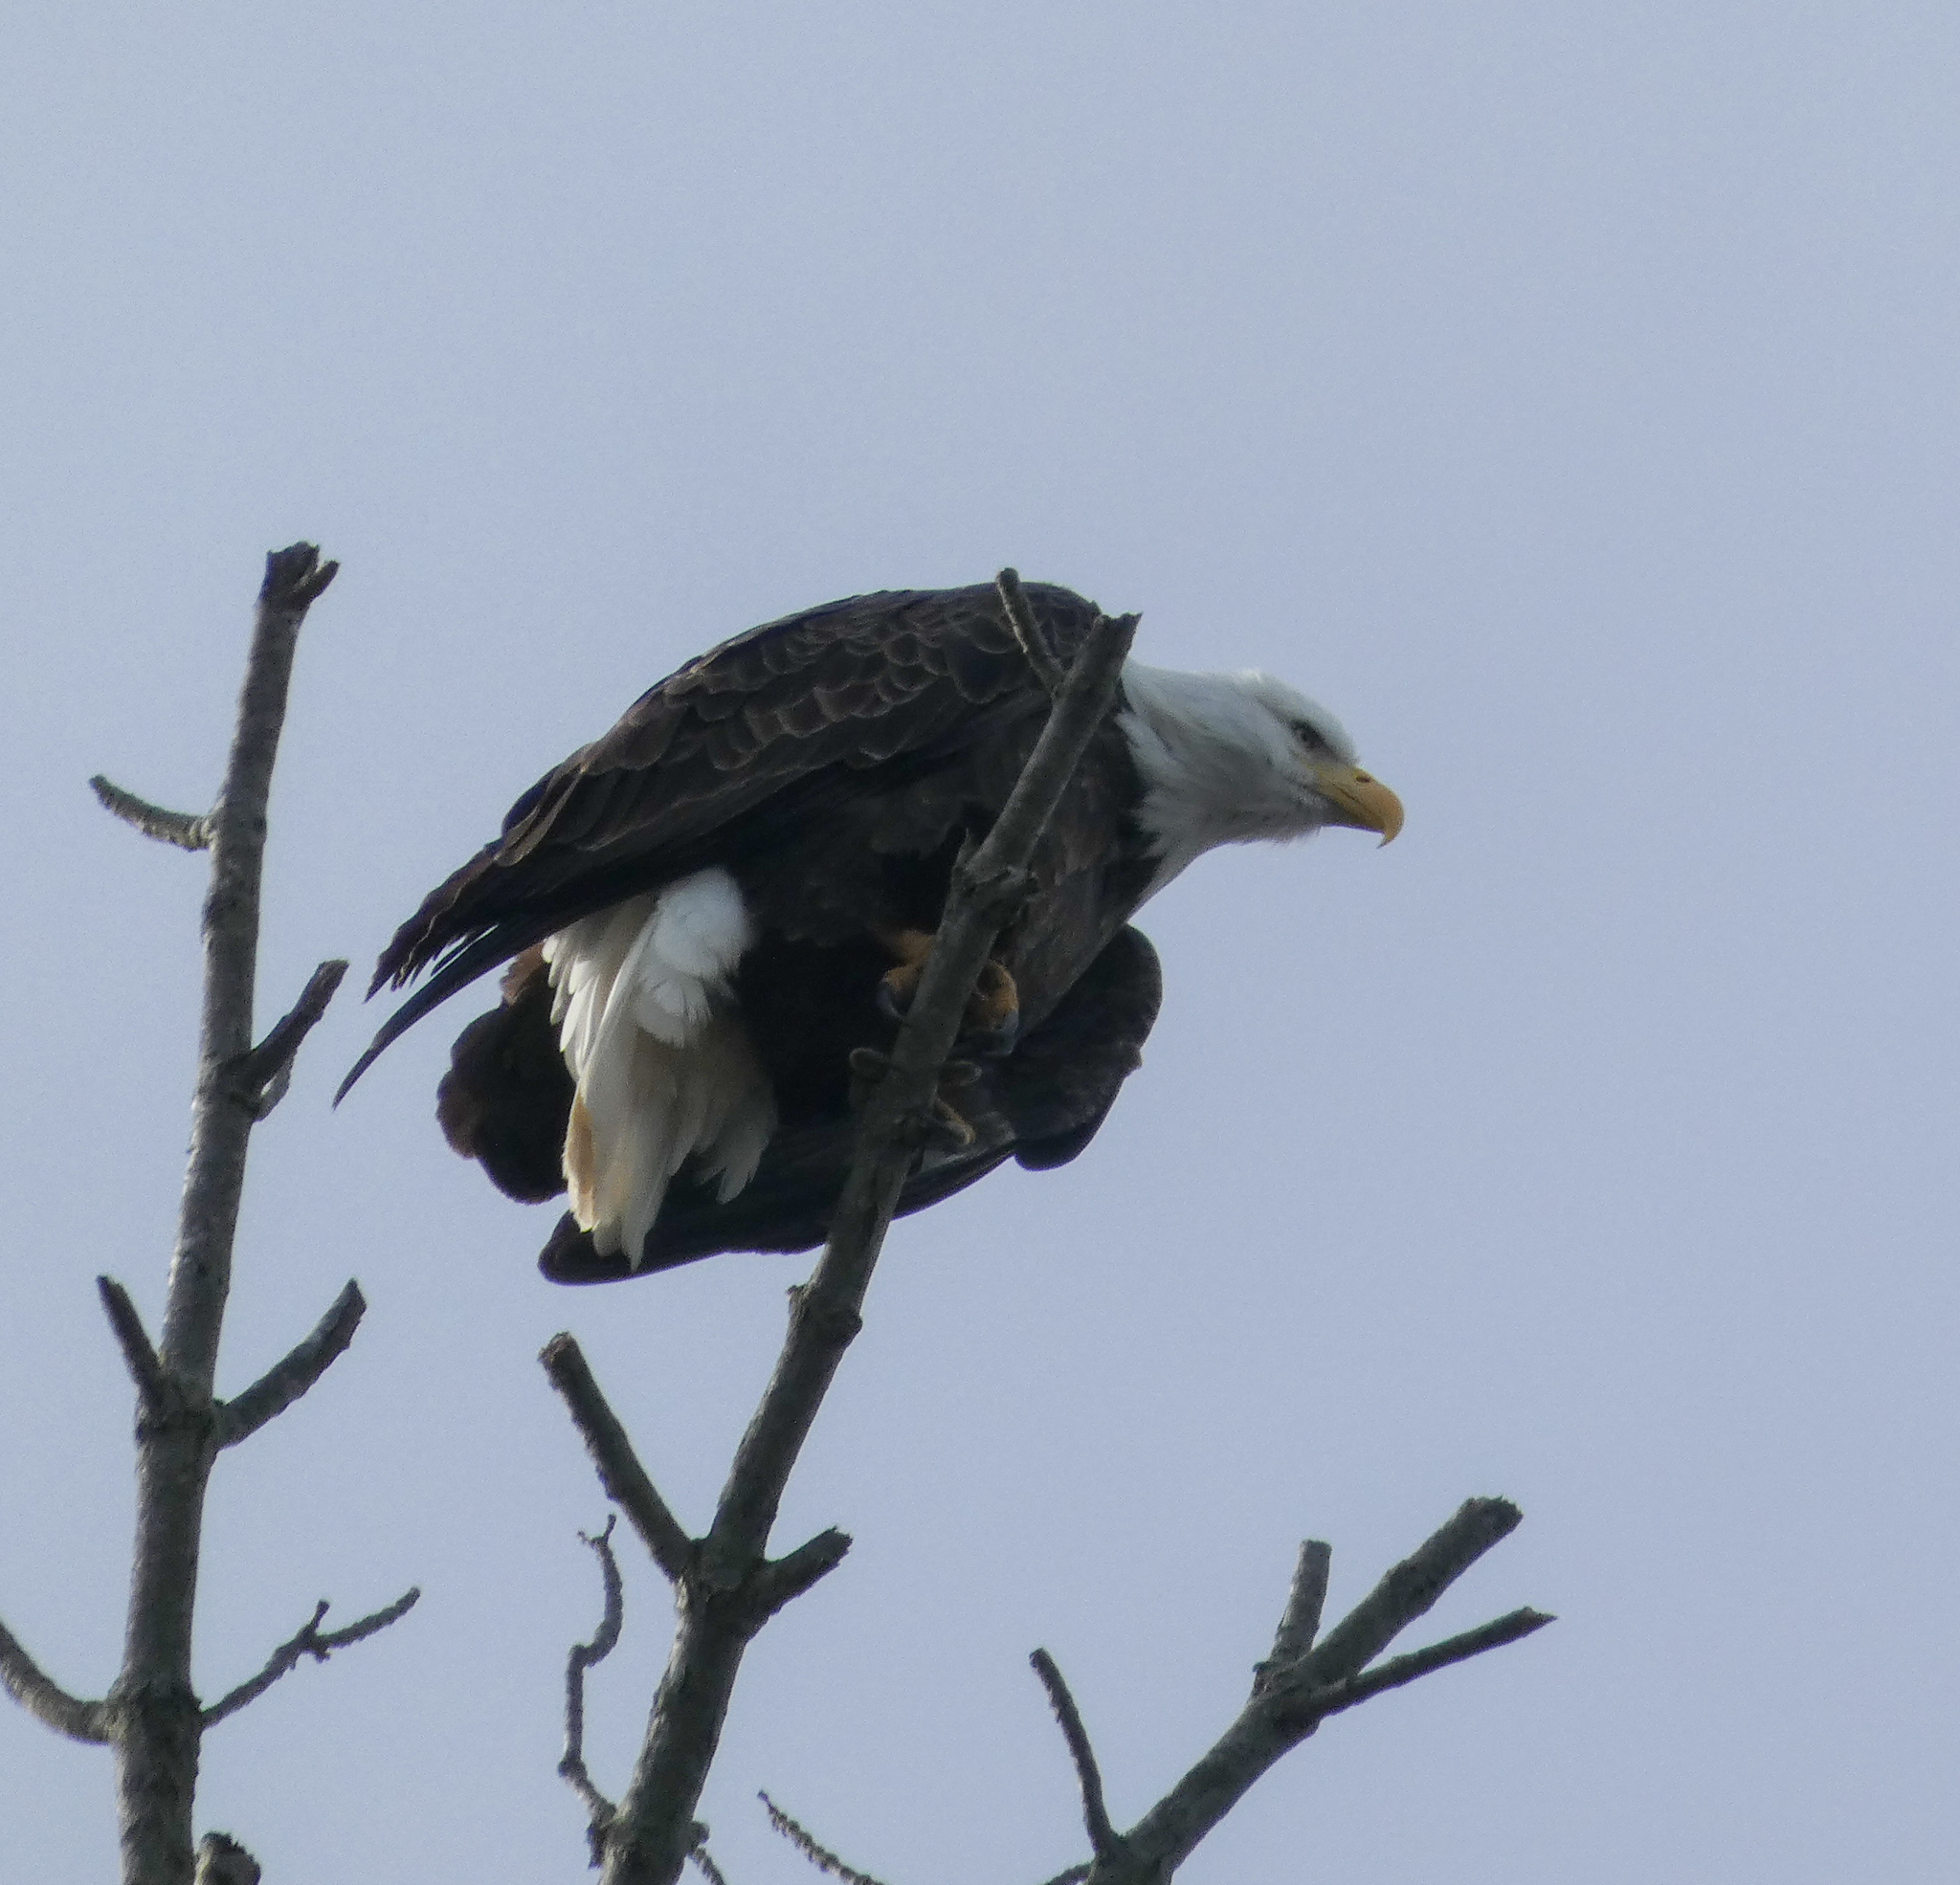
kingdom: Animalia
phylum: Chordata
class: Aves
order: Accipitriformes
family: Accipitridae
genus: Haliaeetus
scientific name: Haliaeetus leucocephalus
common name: Bald eagle
